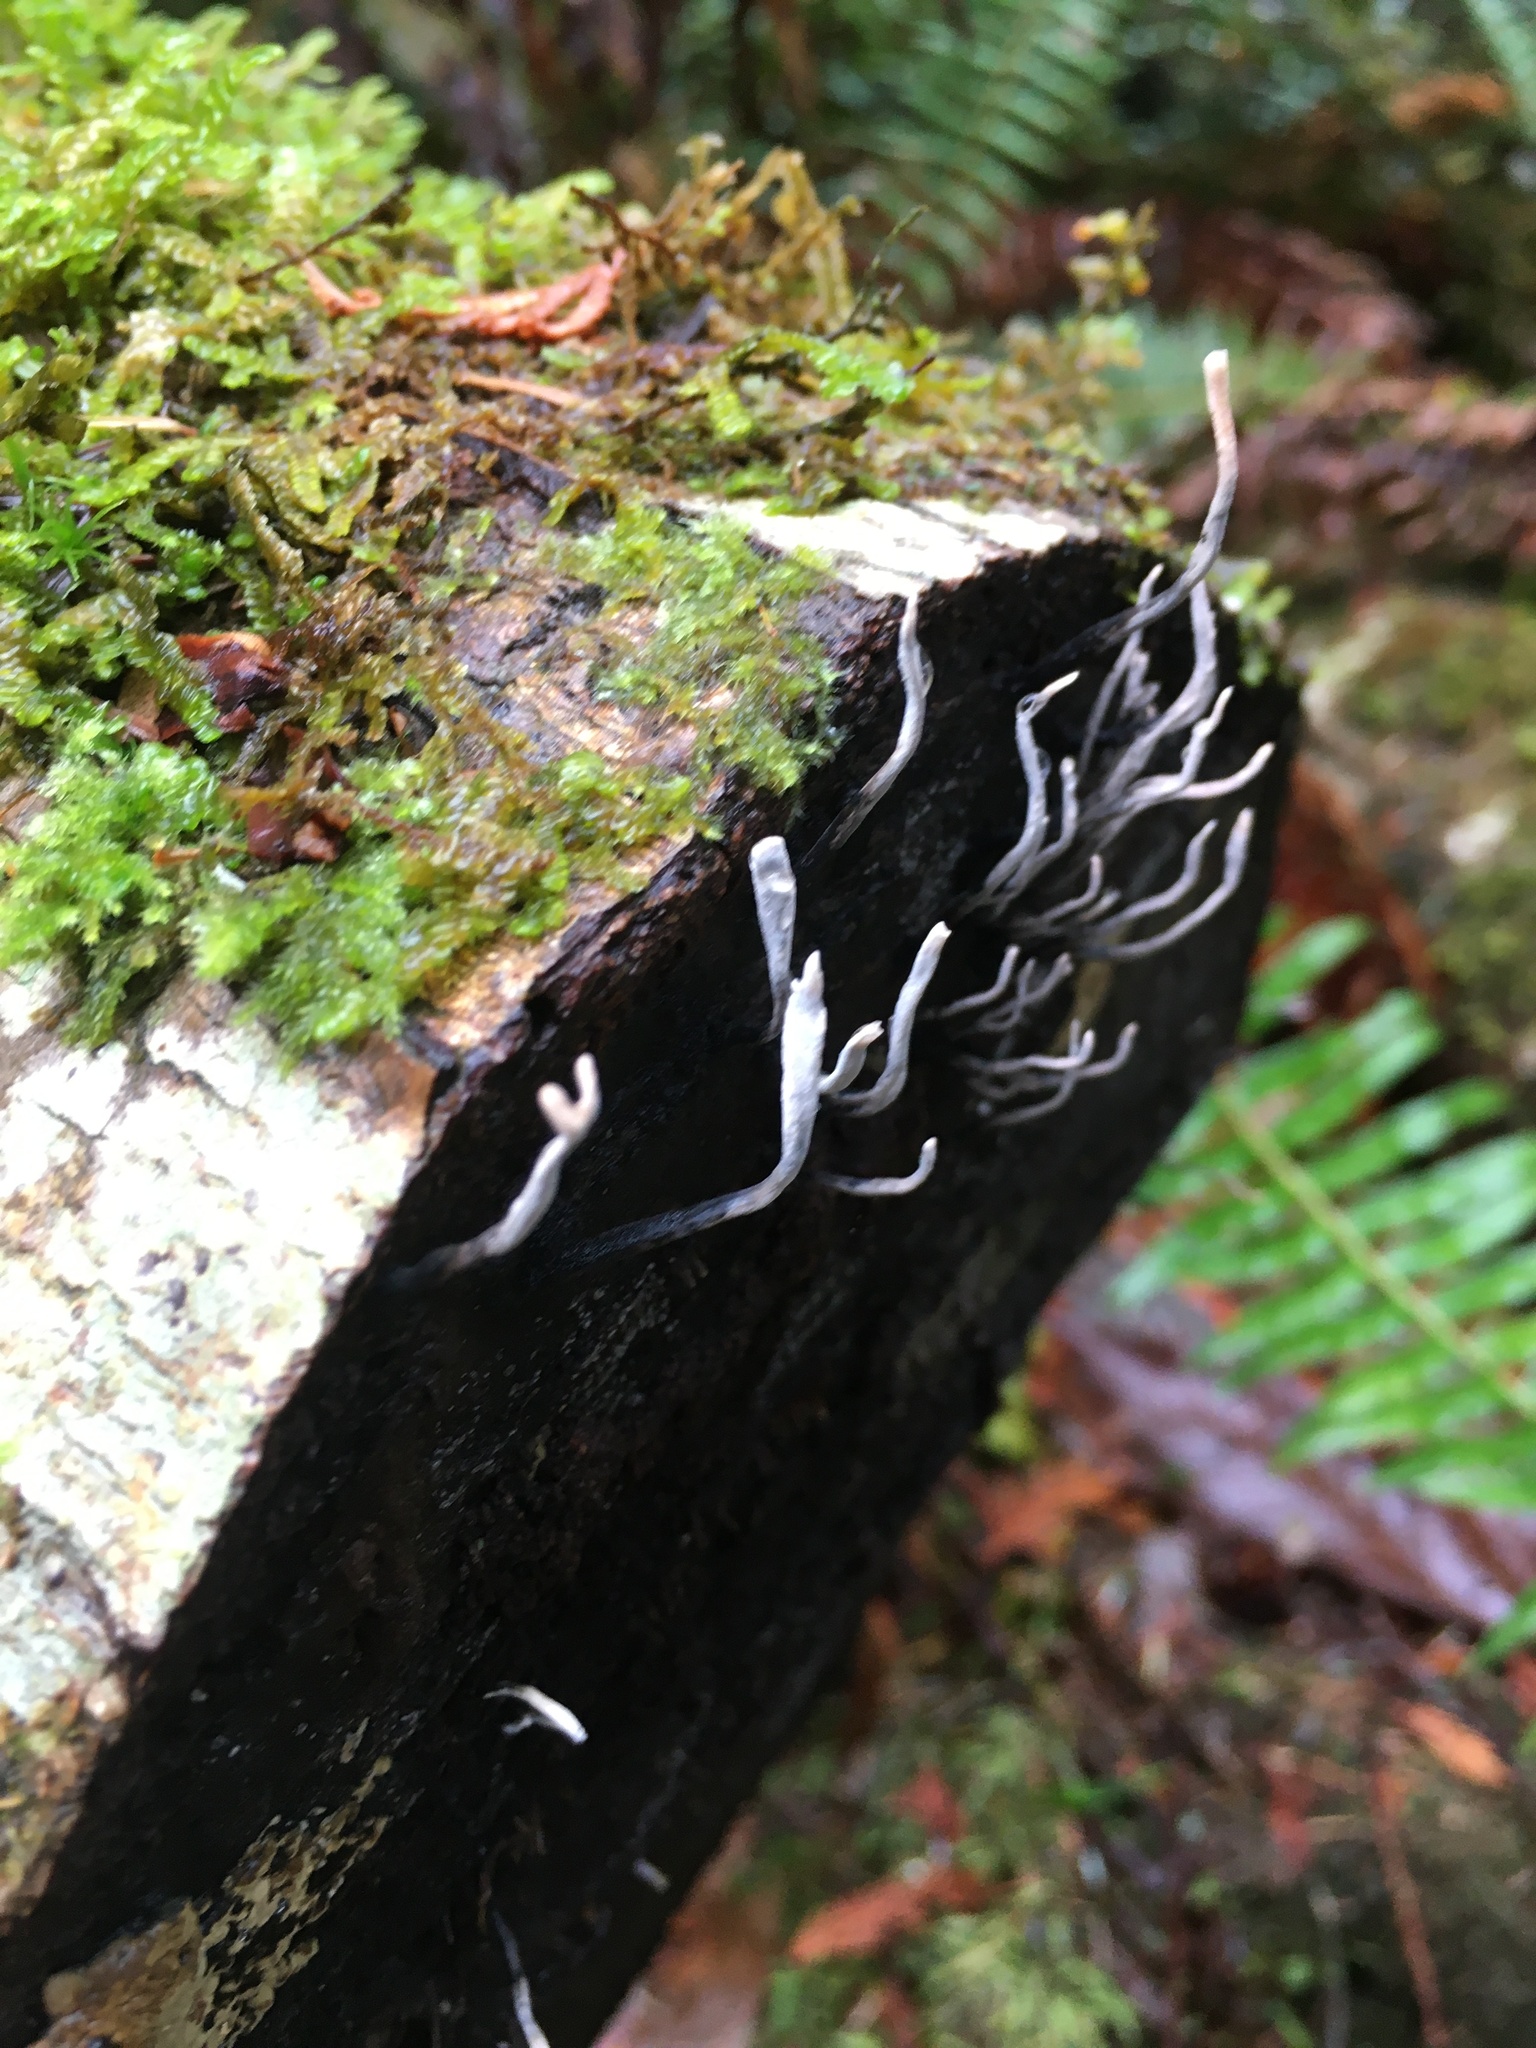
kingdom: Fungi
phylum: Ascomycota
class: Sordariomycetes
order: Xylariales
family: Xylariaceae
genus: Xylaria
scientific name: Xylaria hypoxylon
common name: Candle-snuff fungus
